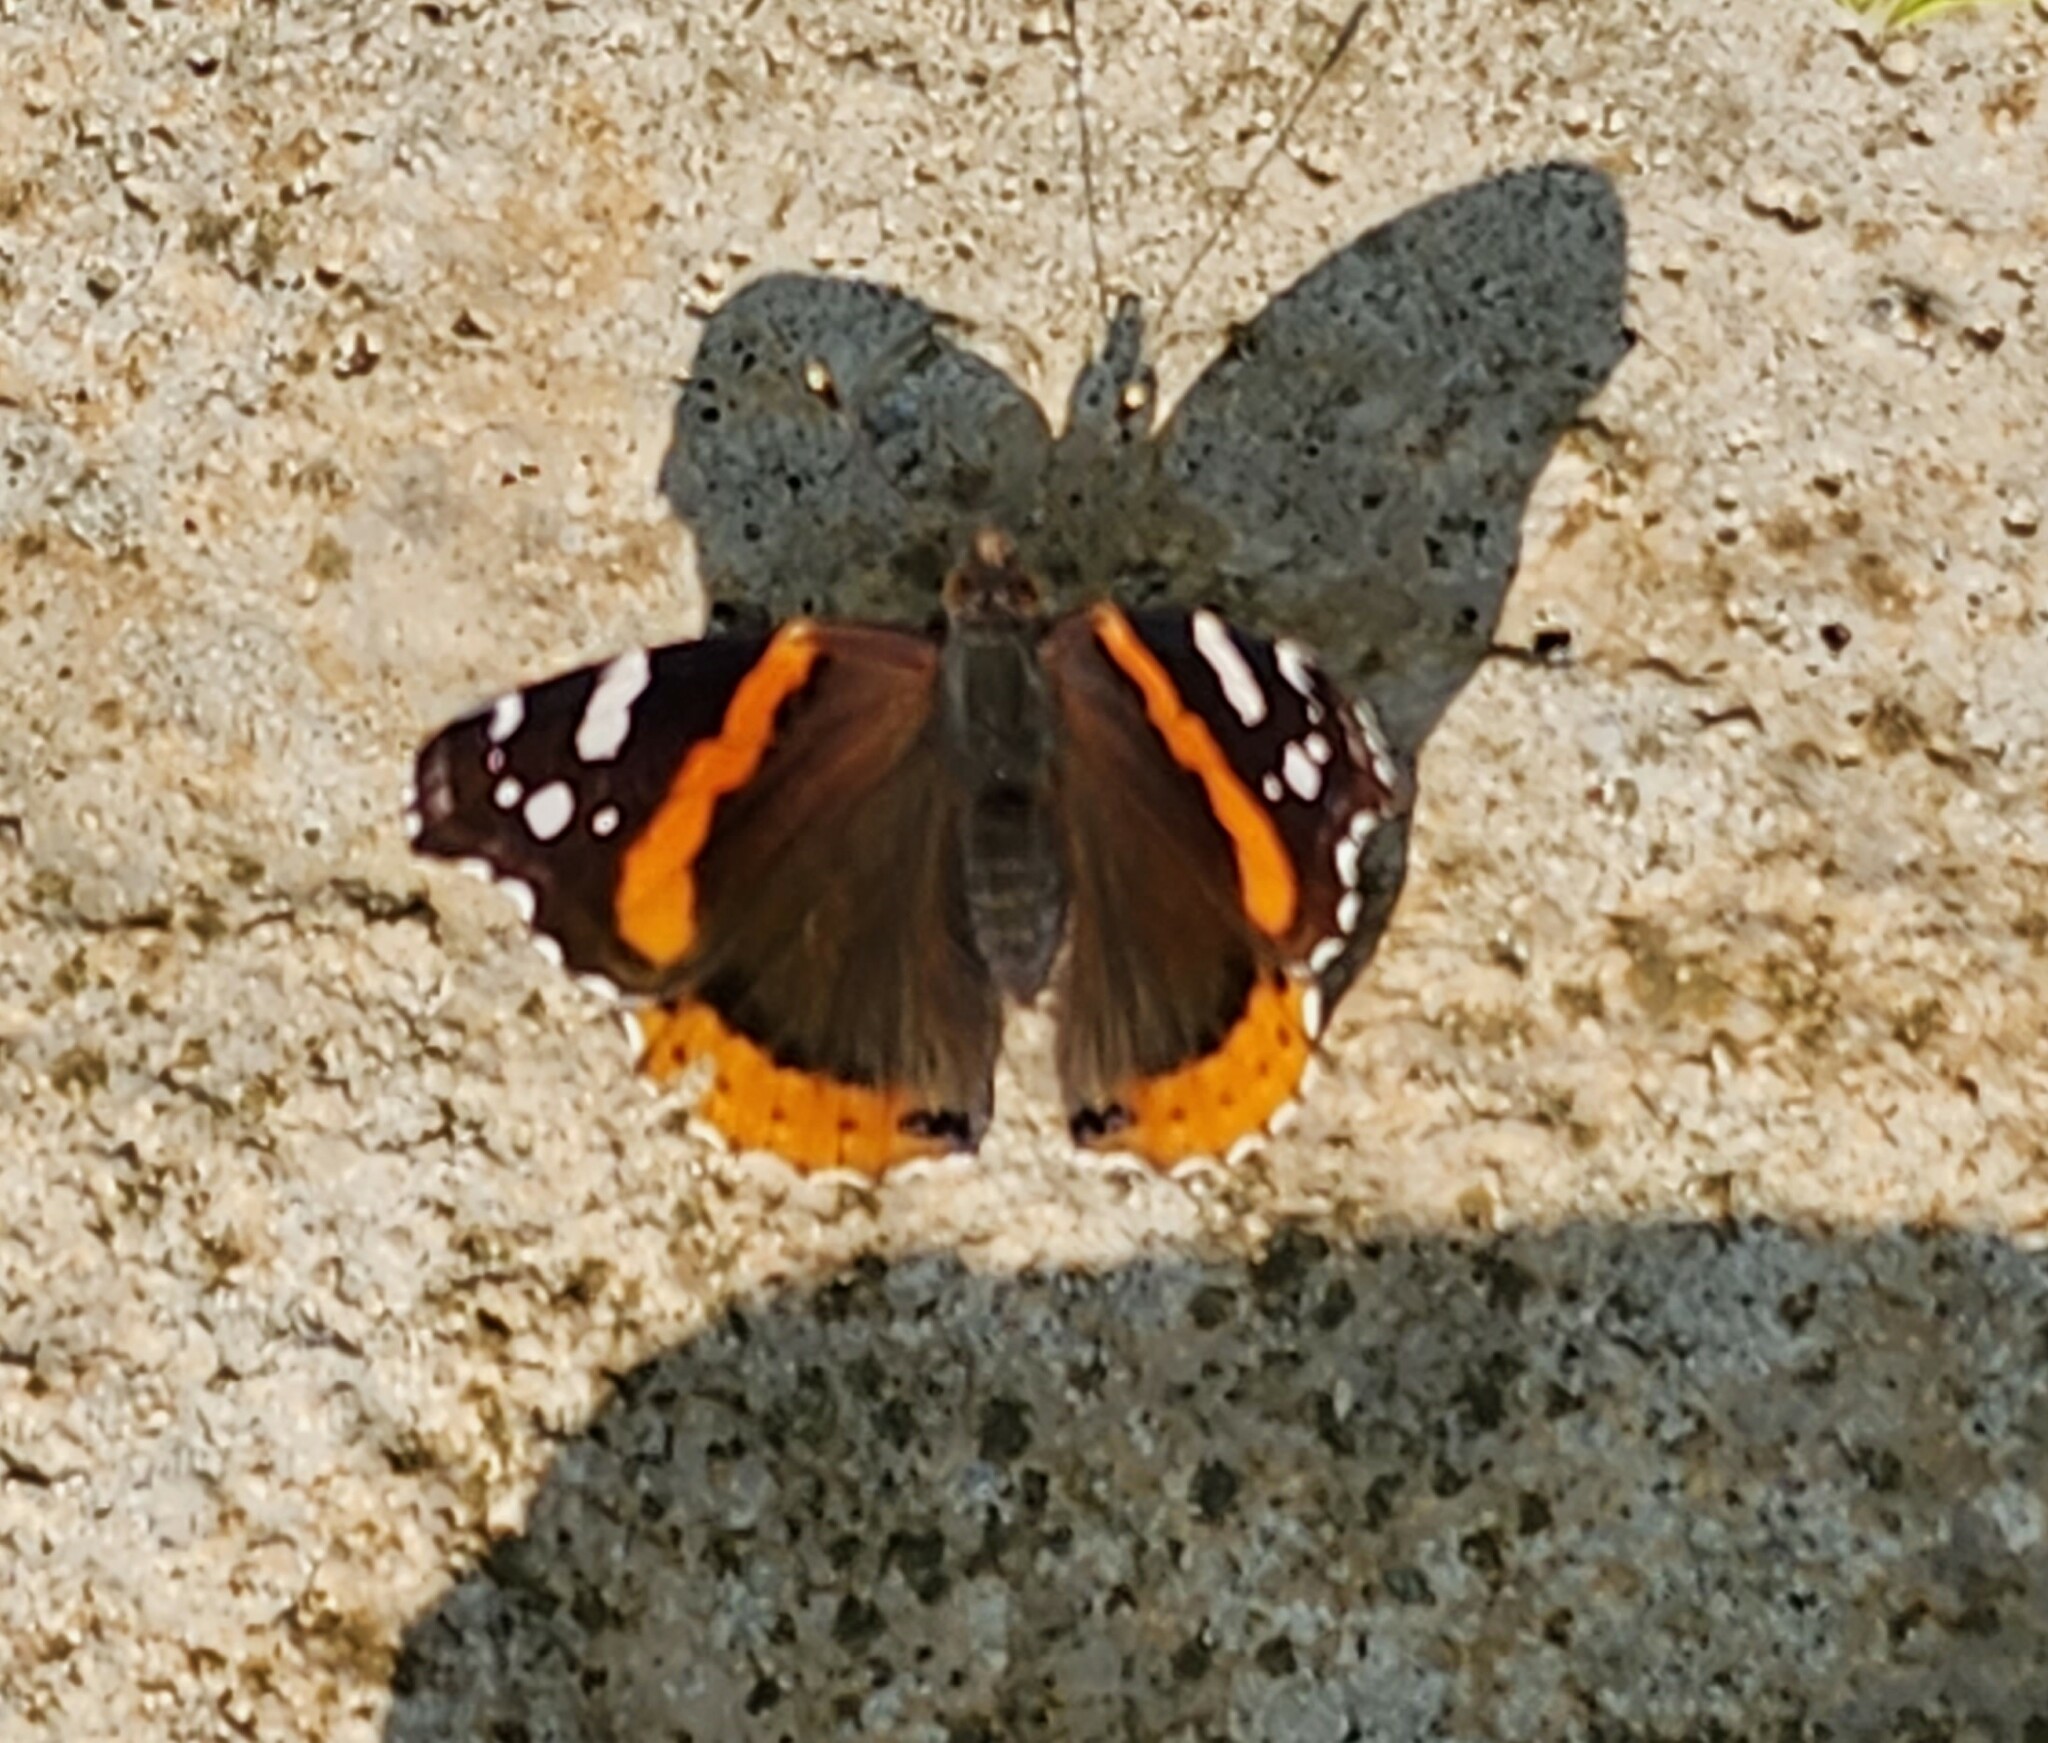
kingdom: Animalia
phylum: Arthropoda
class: Insecta
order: Lepidoptera
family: Nymphalidae
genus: Vanessa
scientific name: Vanessa atalanta
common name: Red admiral
